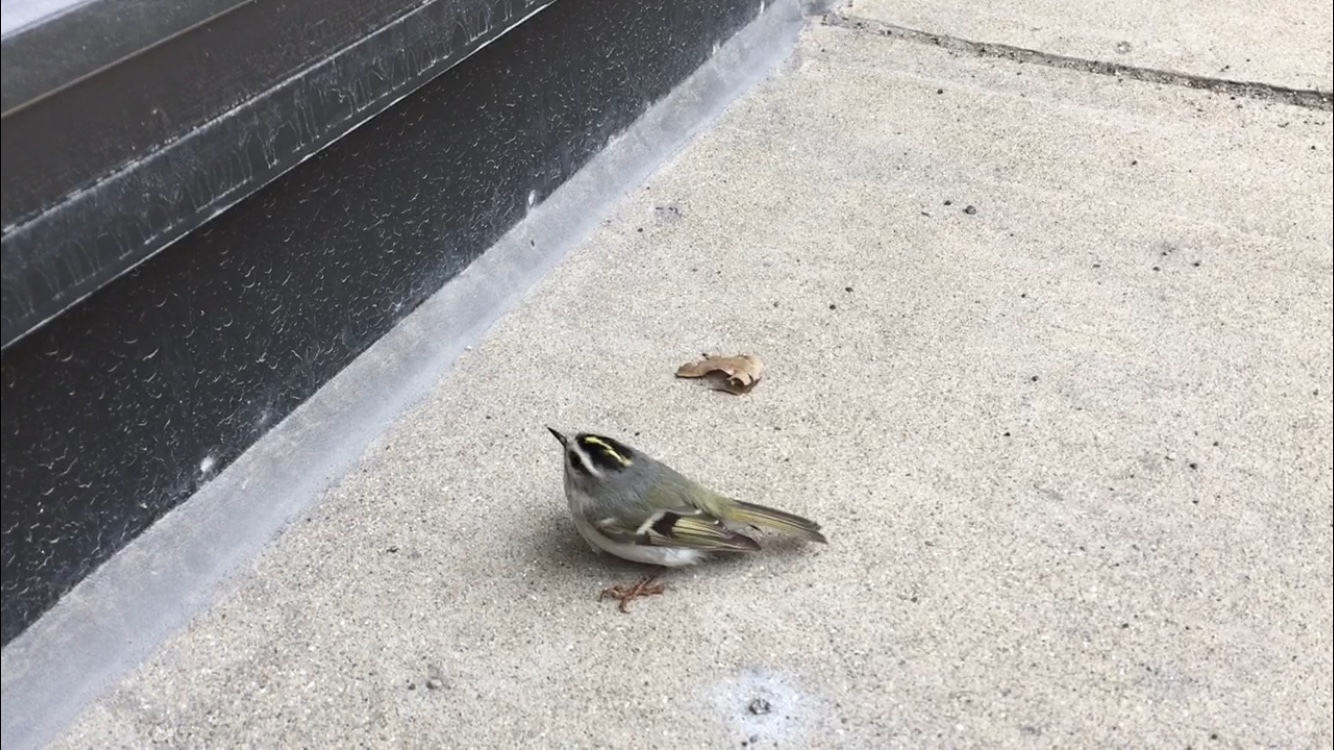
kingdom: Animalia
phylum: Chordata
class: Aves
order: Passeriformes
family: Regulidae
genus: Regulus
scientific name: Regulus satrapa
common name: Golden-crowned kinglet
